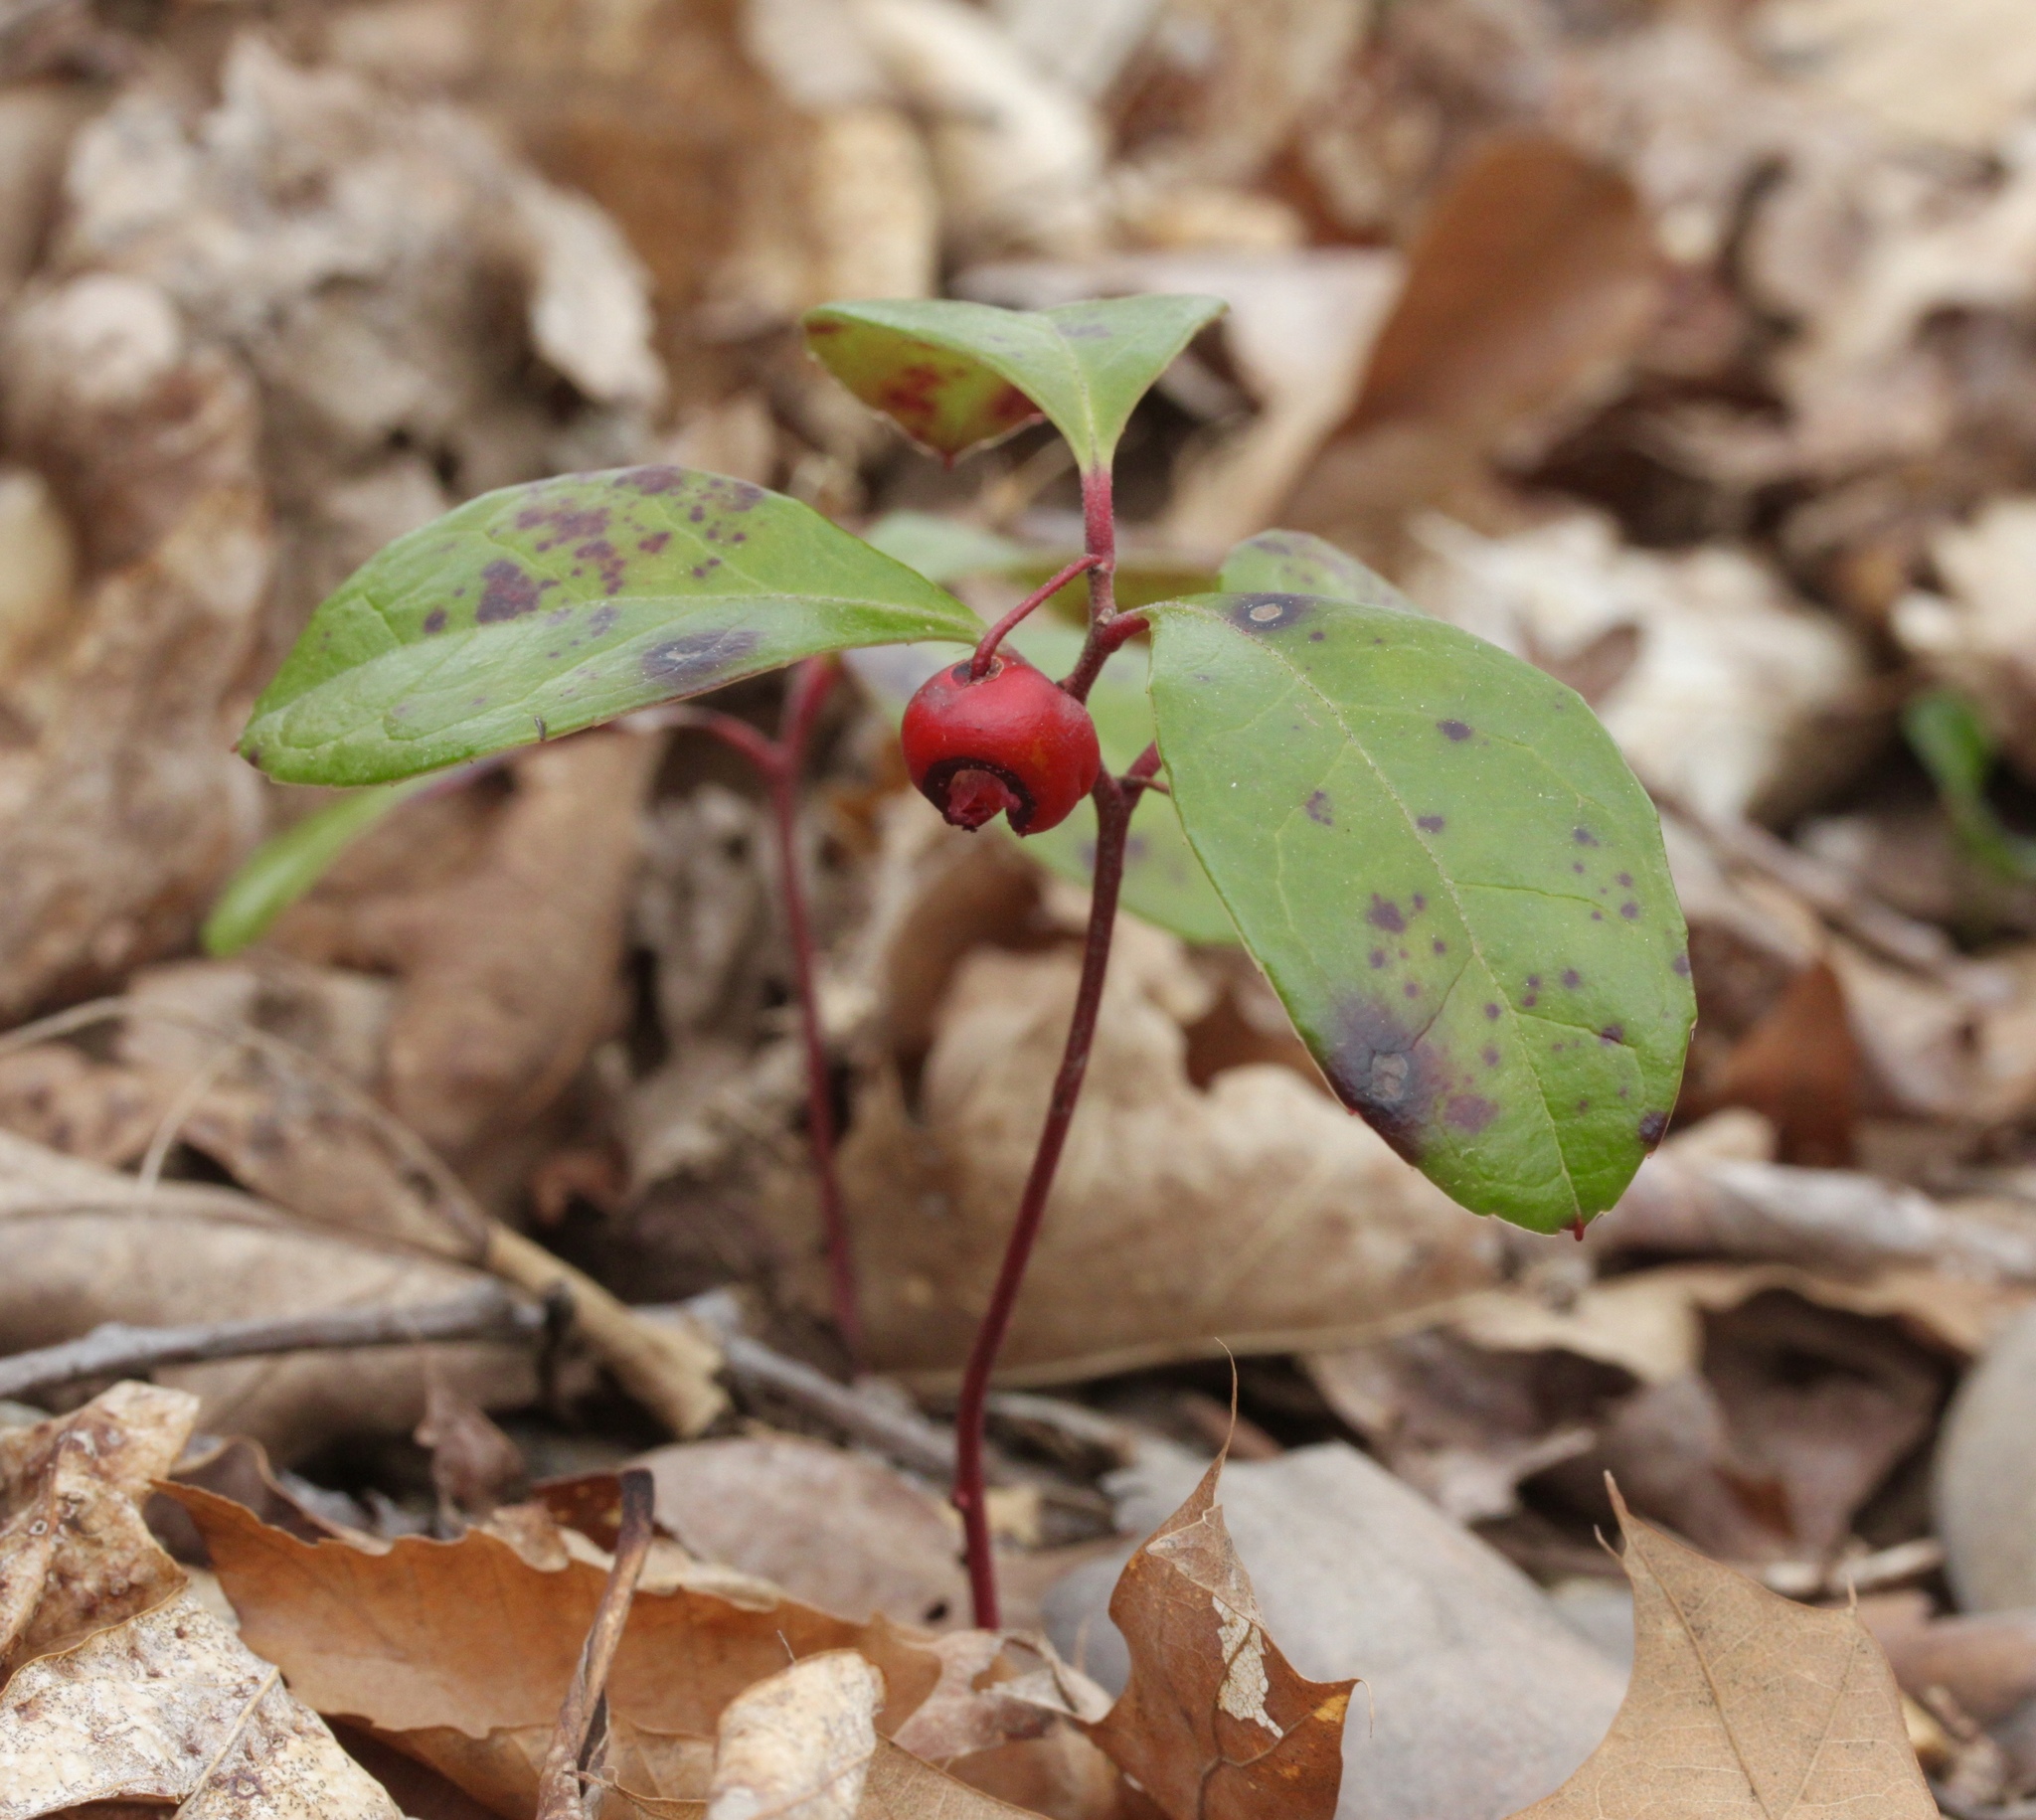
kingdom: Plantae
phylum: Tracheophyta
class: Magnoliopsida
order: Ericales
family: Ericaceae
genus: Gaultheria
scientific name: Gaultheria procumbens
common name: Checkerberry
